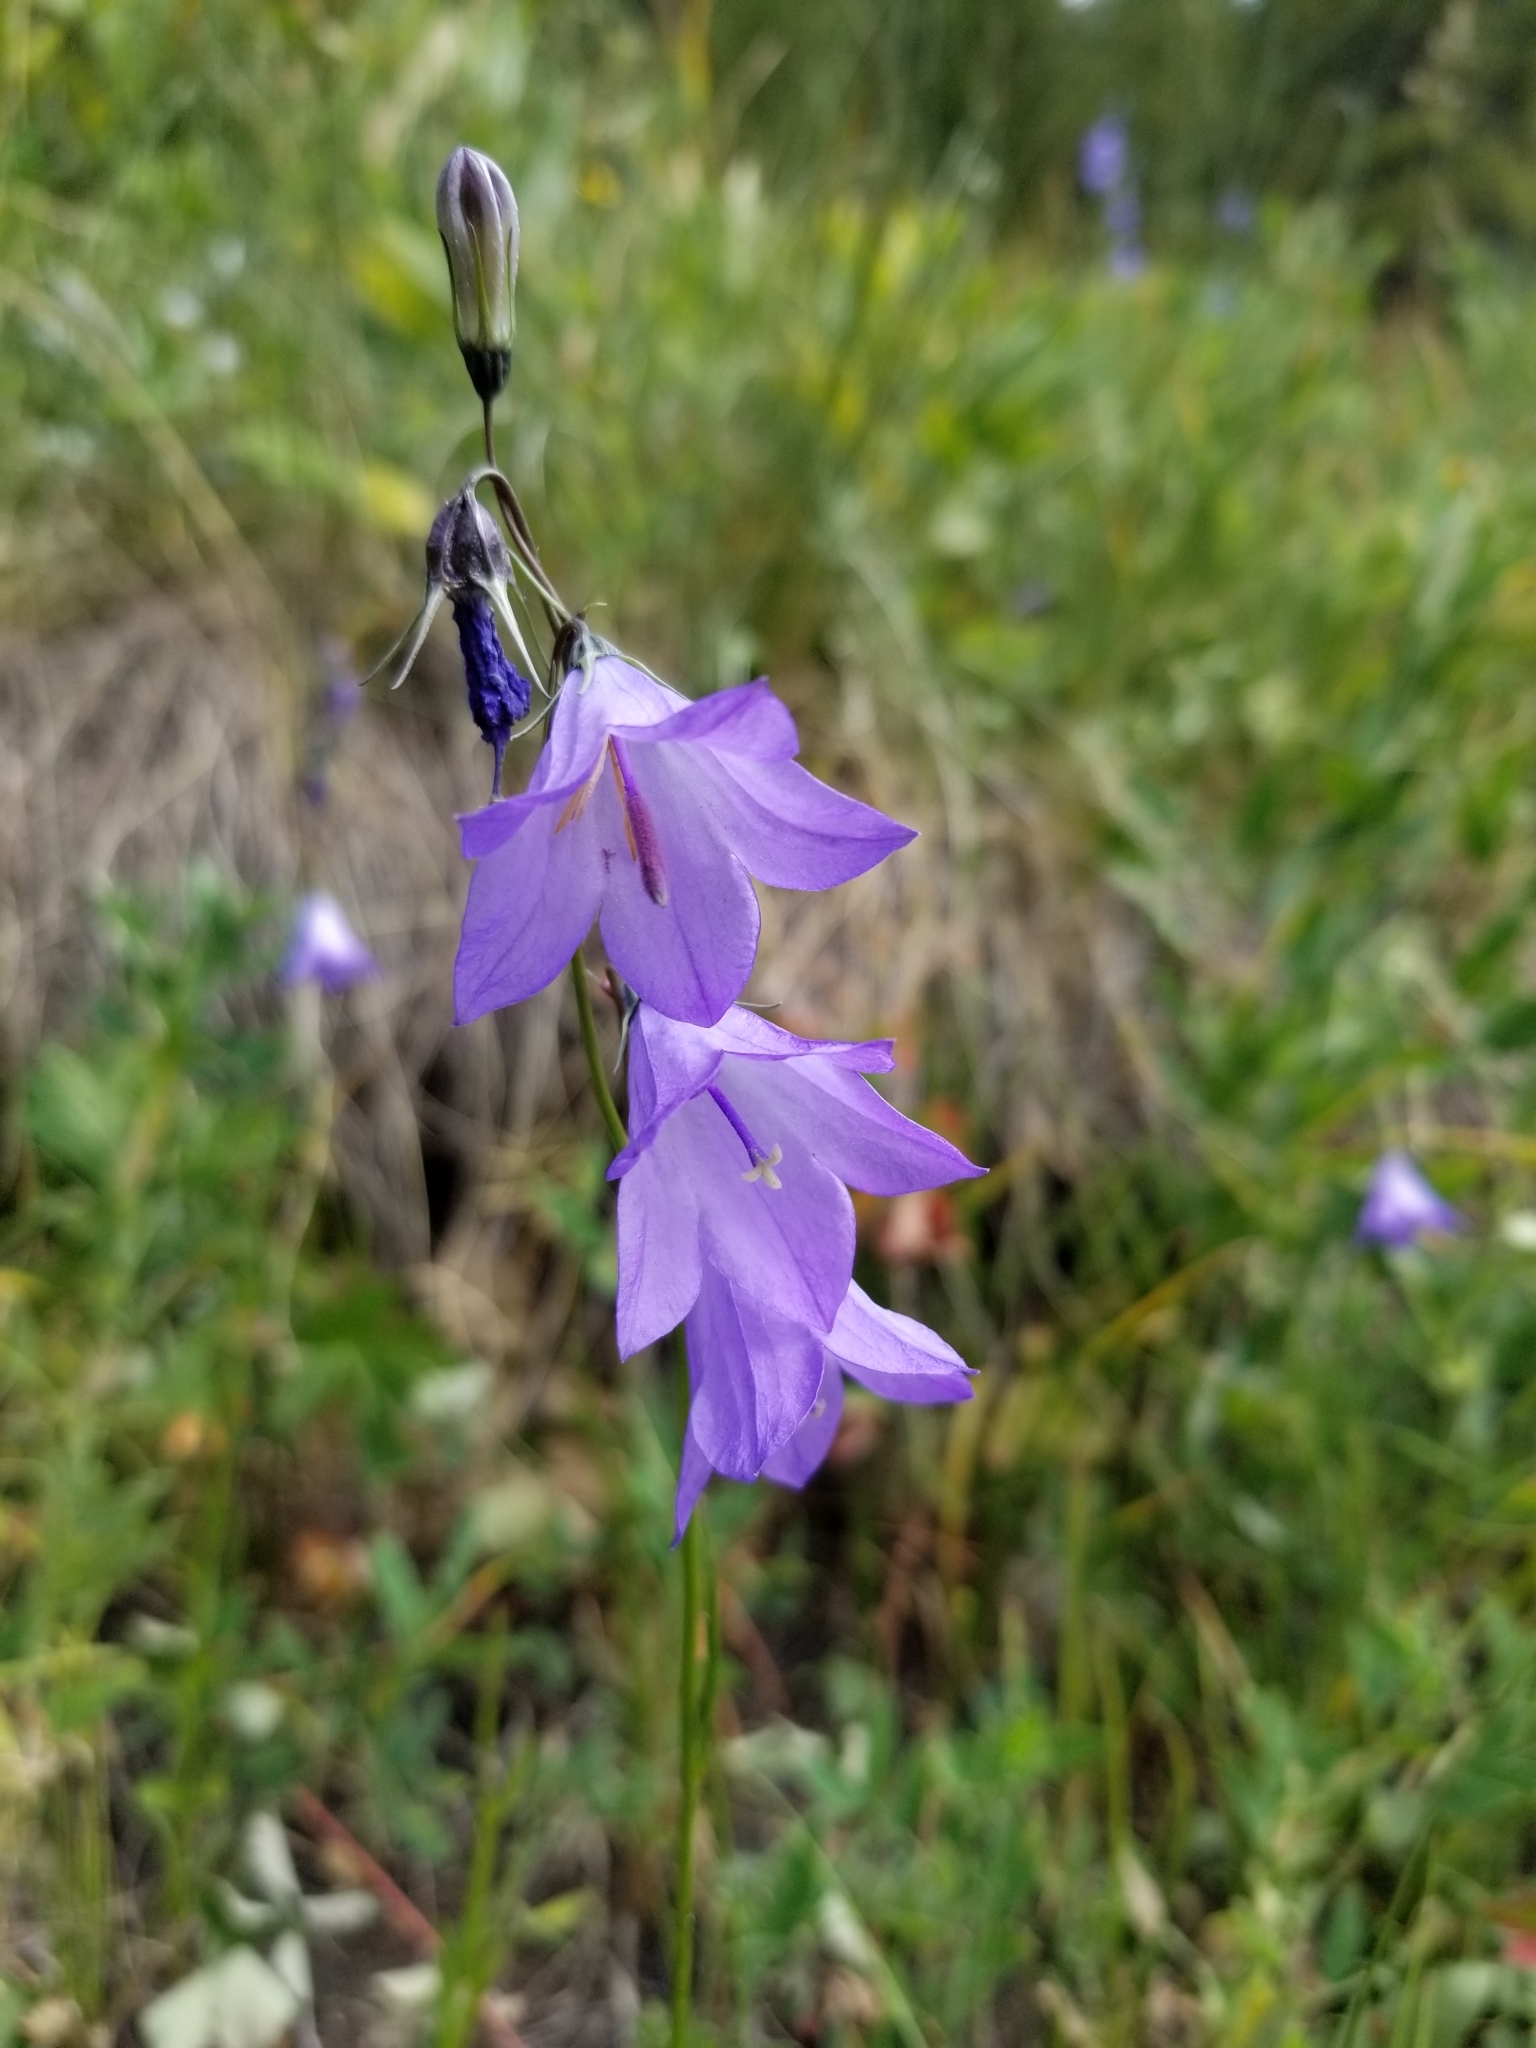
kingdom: Plantae
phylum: Tracheophyta
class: Magnoliopsida
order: Asterales
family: Campanulaceae
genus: Campanula
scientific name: Campanula petiolata
